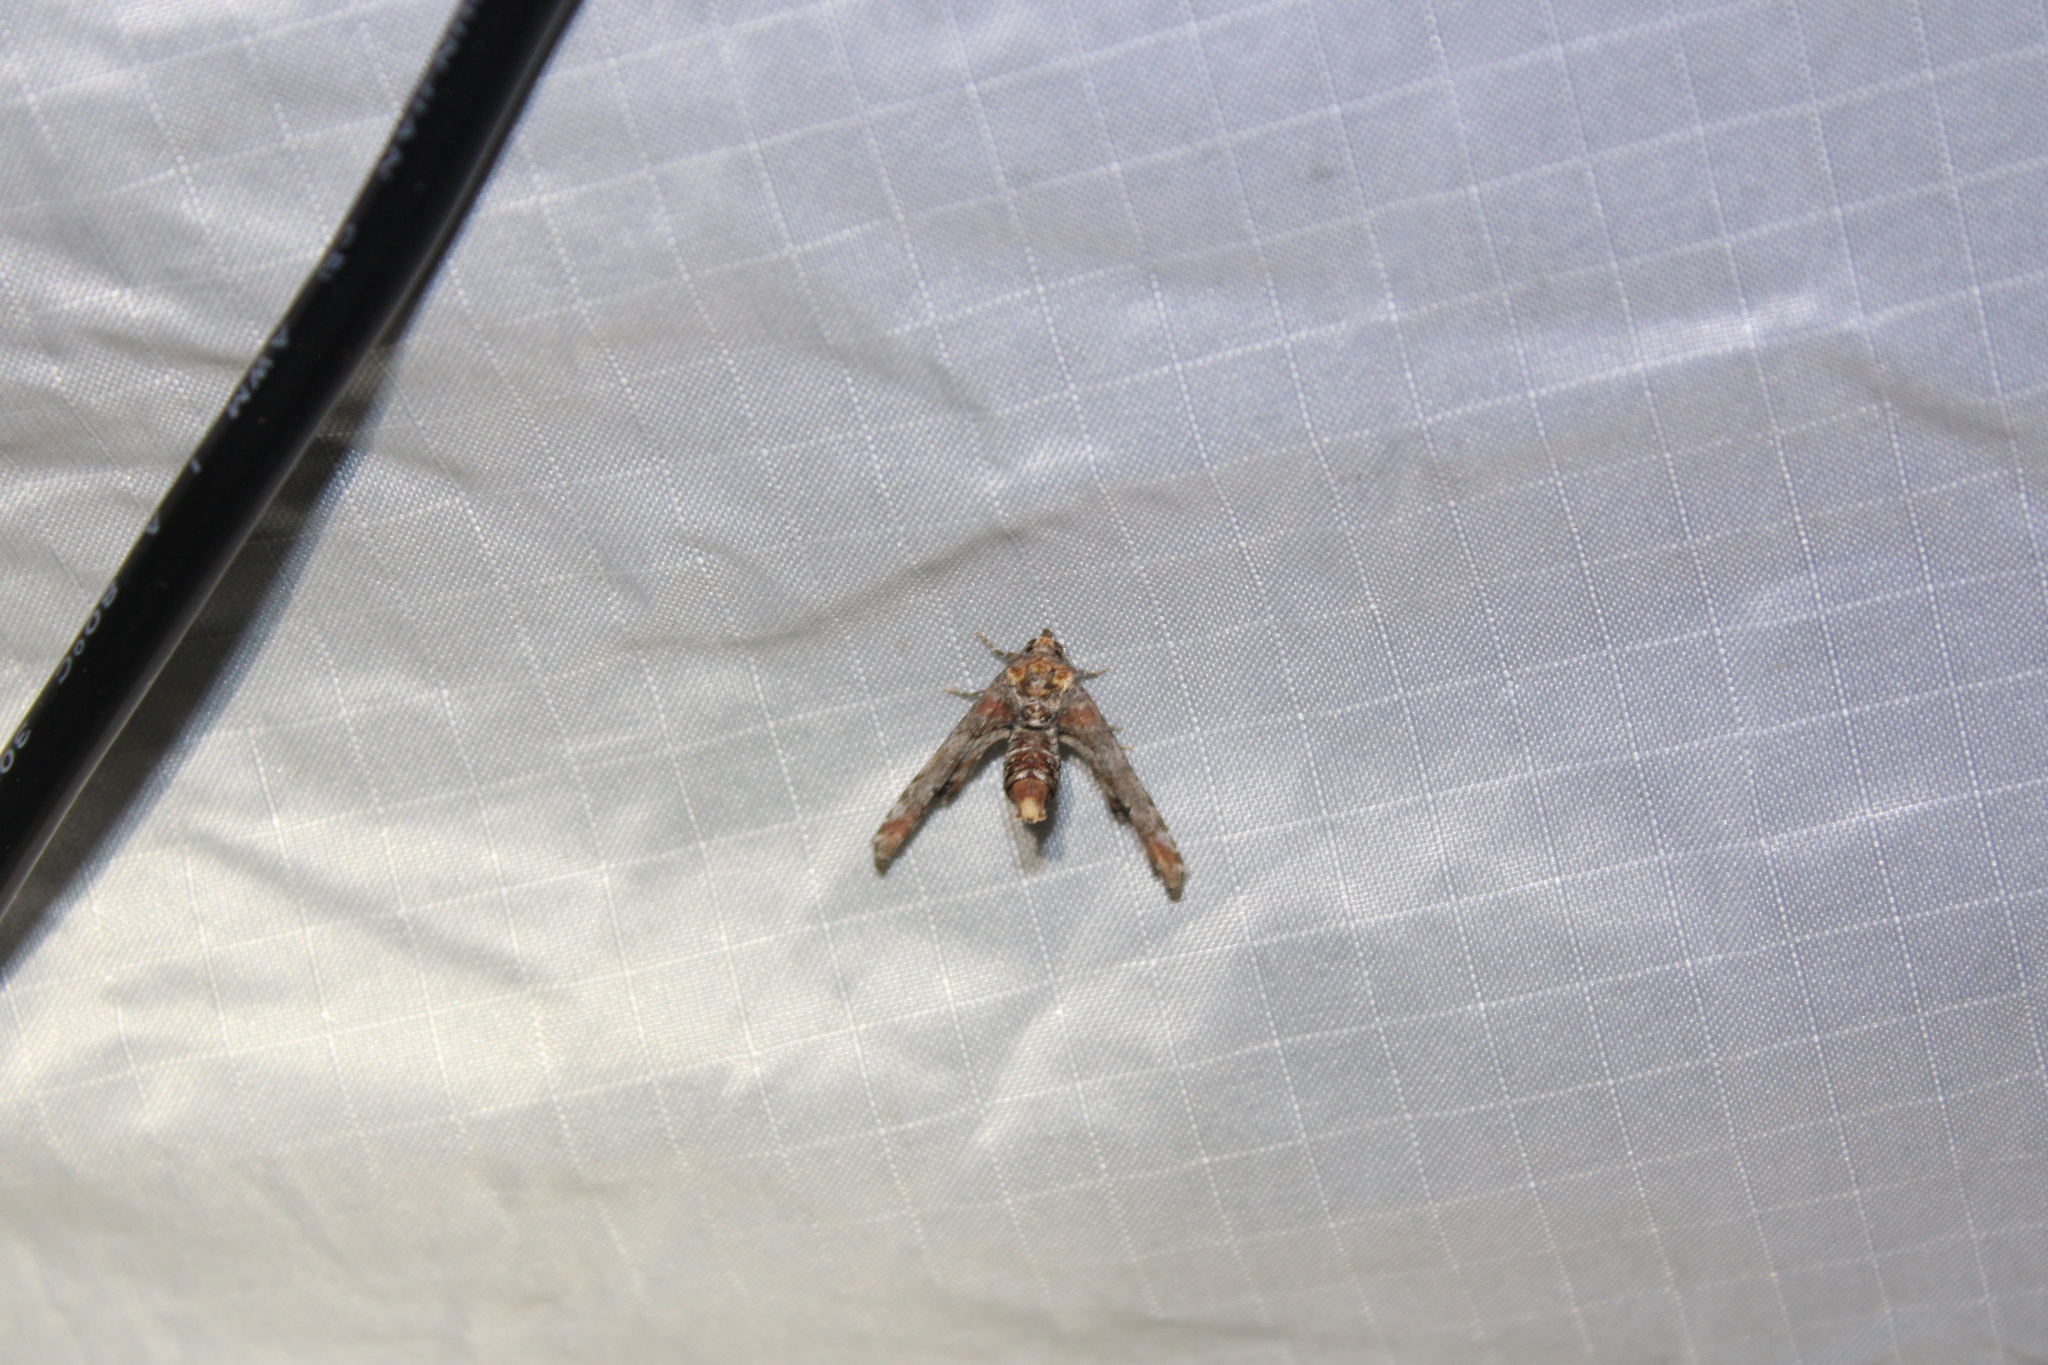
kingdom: Animalia
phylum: Arthropoda
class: Insecta
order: Lepidoptera
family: Euteliidae
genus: Marathyssa
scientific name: Marathyssa inficita
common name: Dark marathyssa moth
